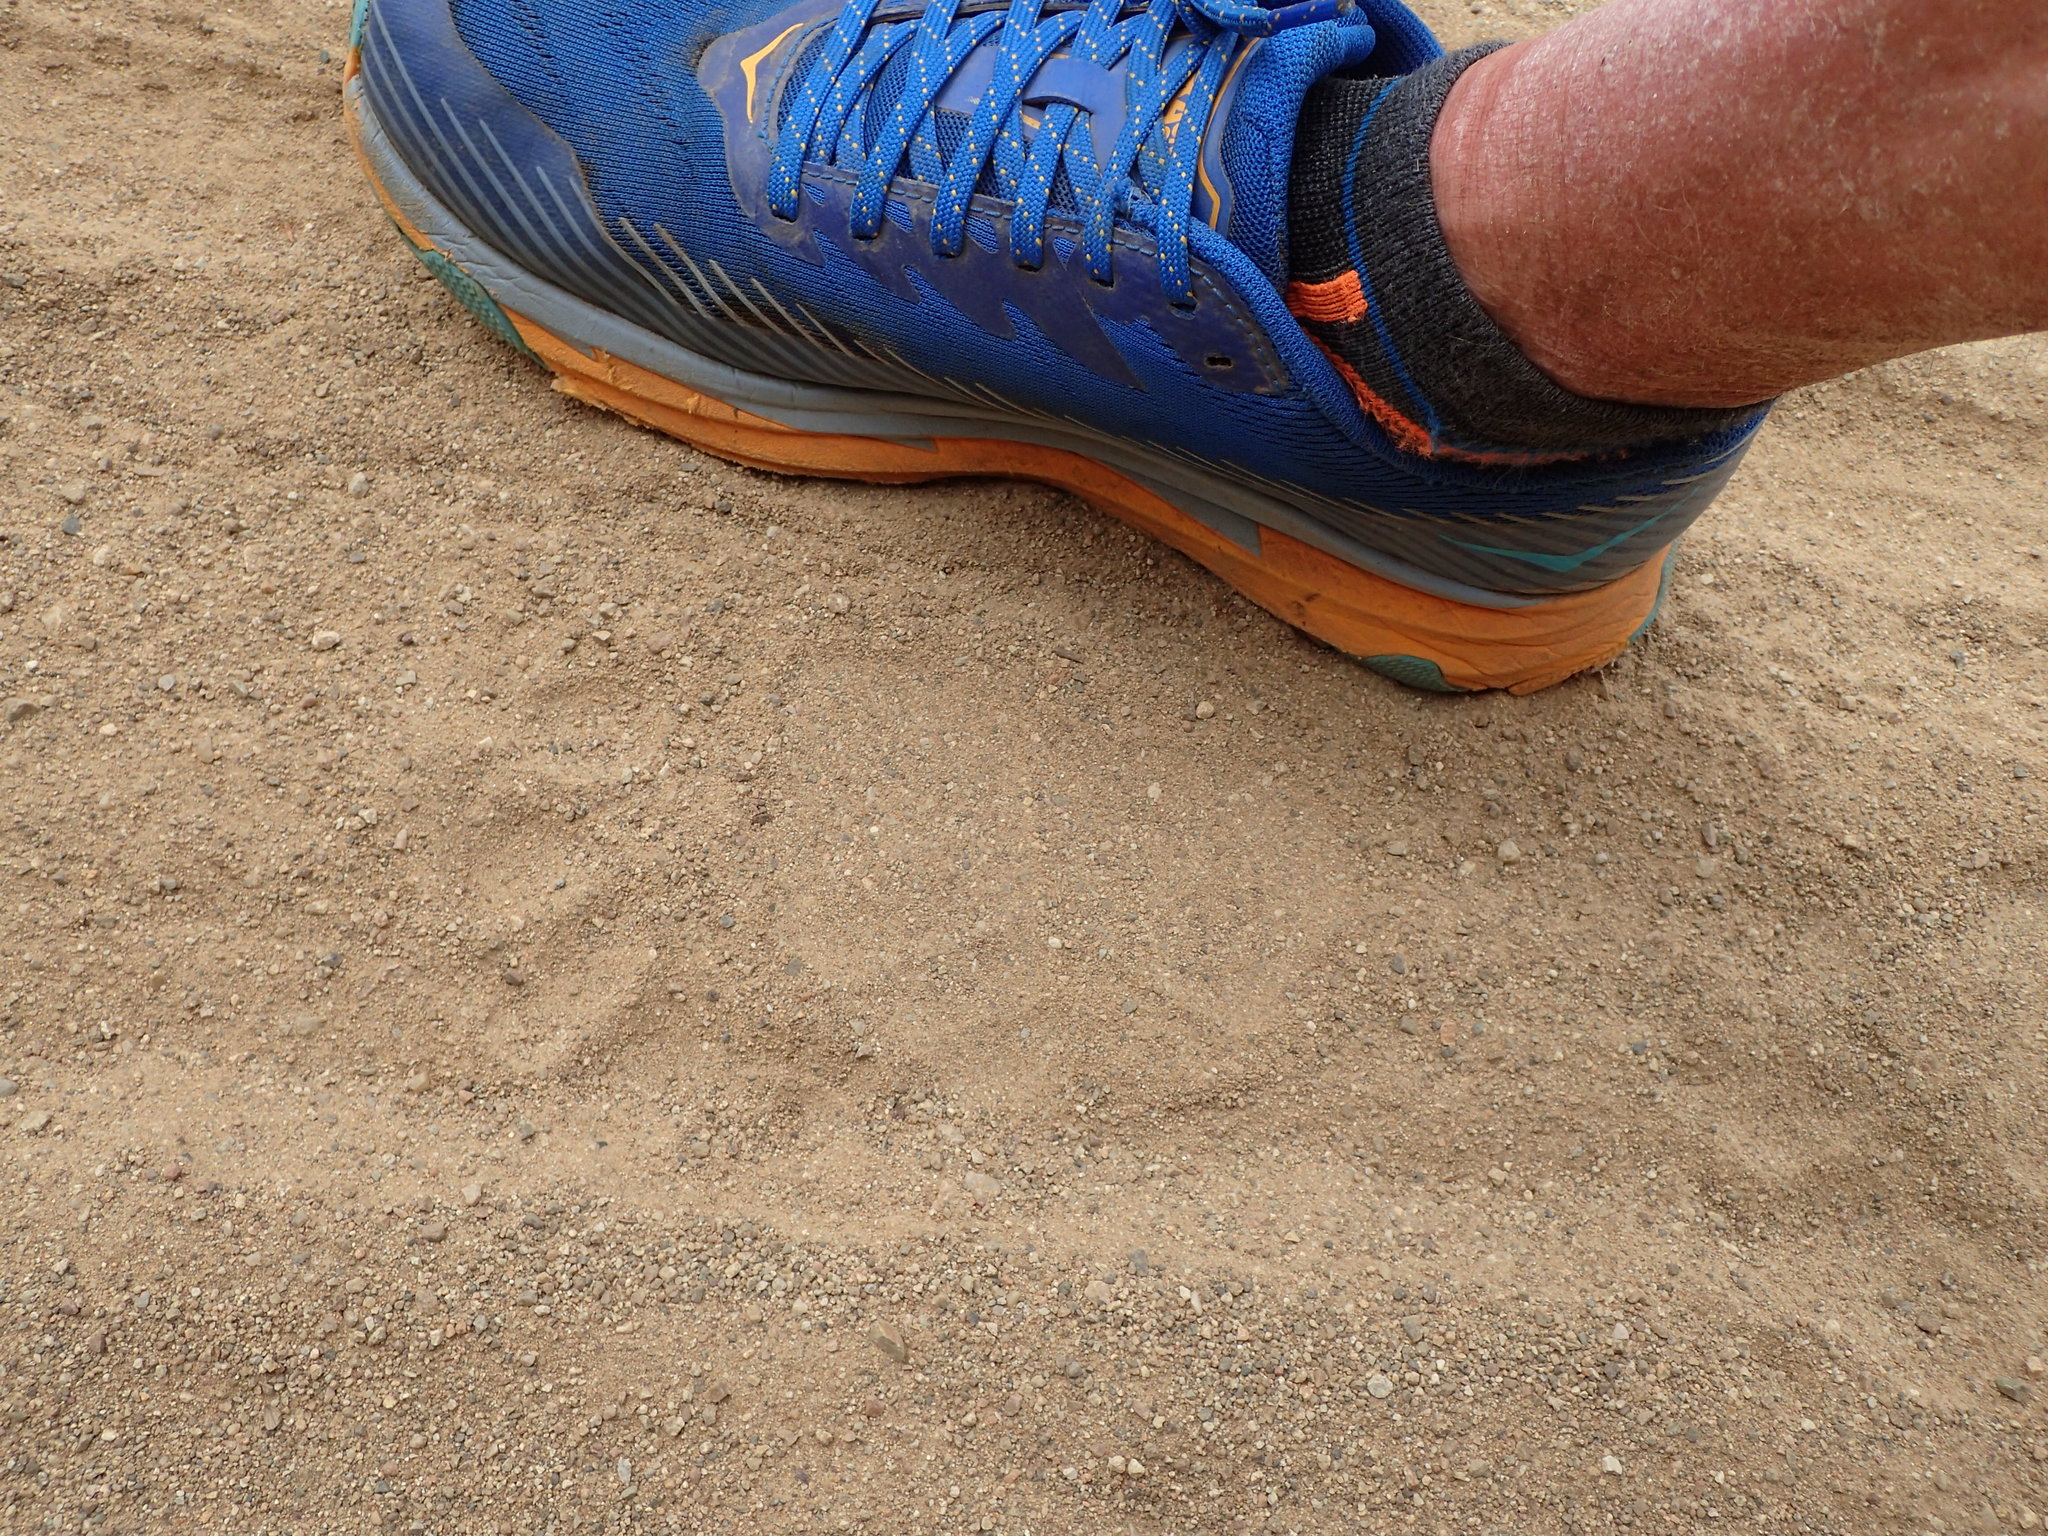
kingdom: Animalia
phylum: Chordata
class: Mammalia
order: Carnivora
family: Ursidae
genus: Ursus
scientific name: Ursus americanus
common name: American black bear
